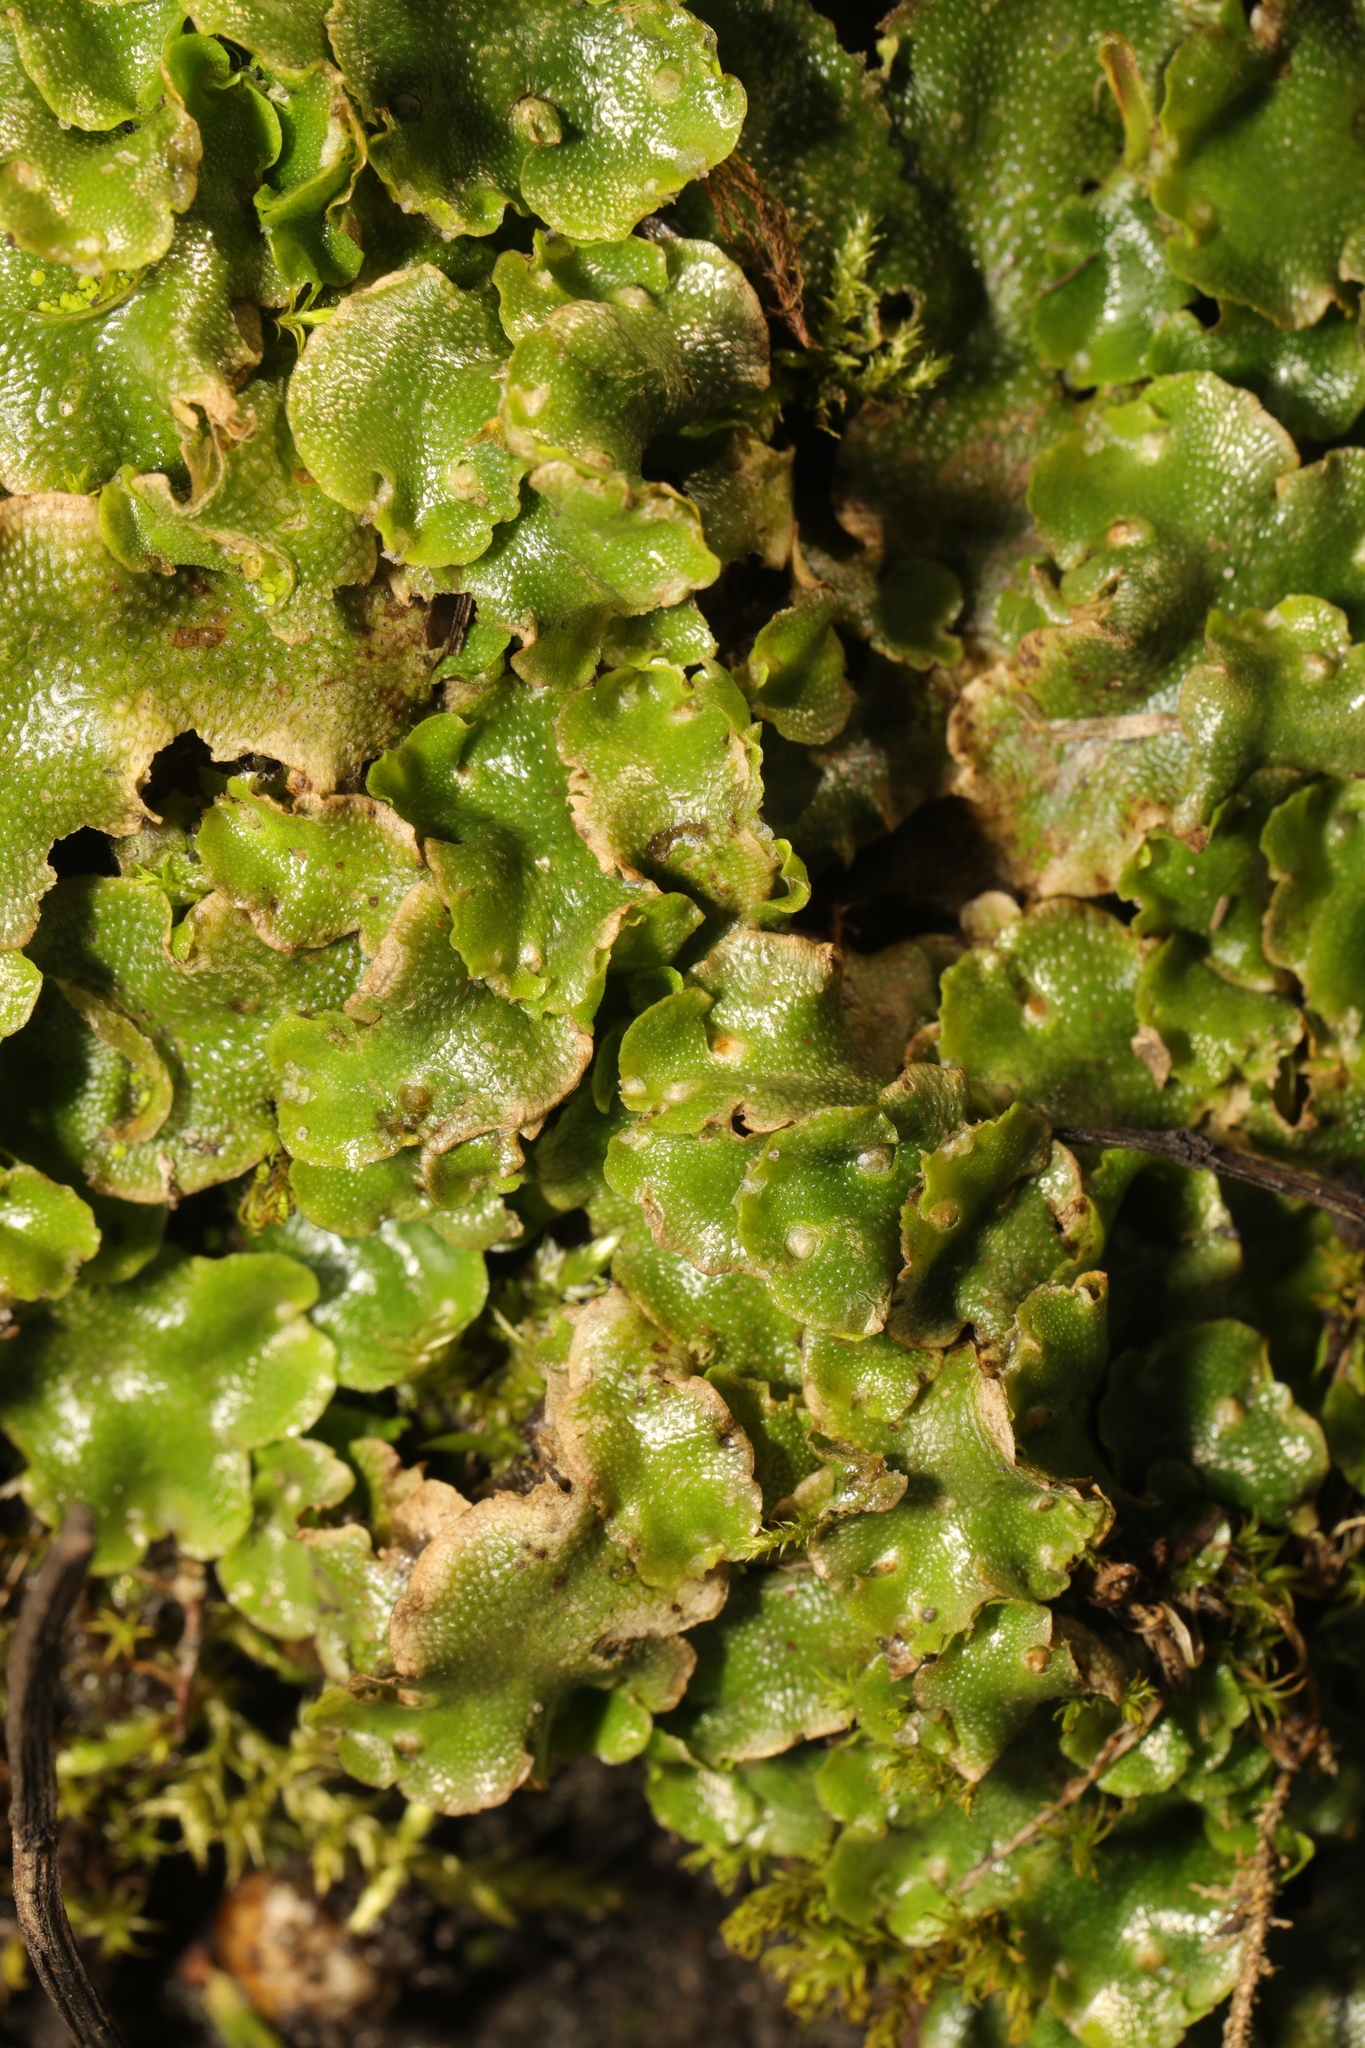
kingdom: Plantae
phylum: Marchantiophyta
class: Marchantiopsida
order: Lunulariales
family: Lunulariaceae
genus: Lunularia
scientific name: Lunularia cruciata
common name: Crescent-cup liverwort
